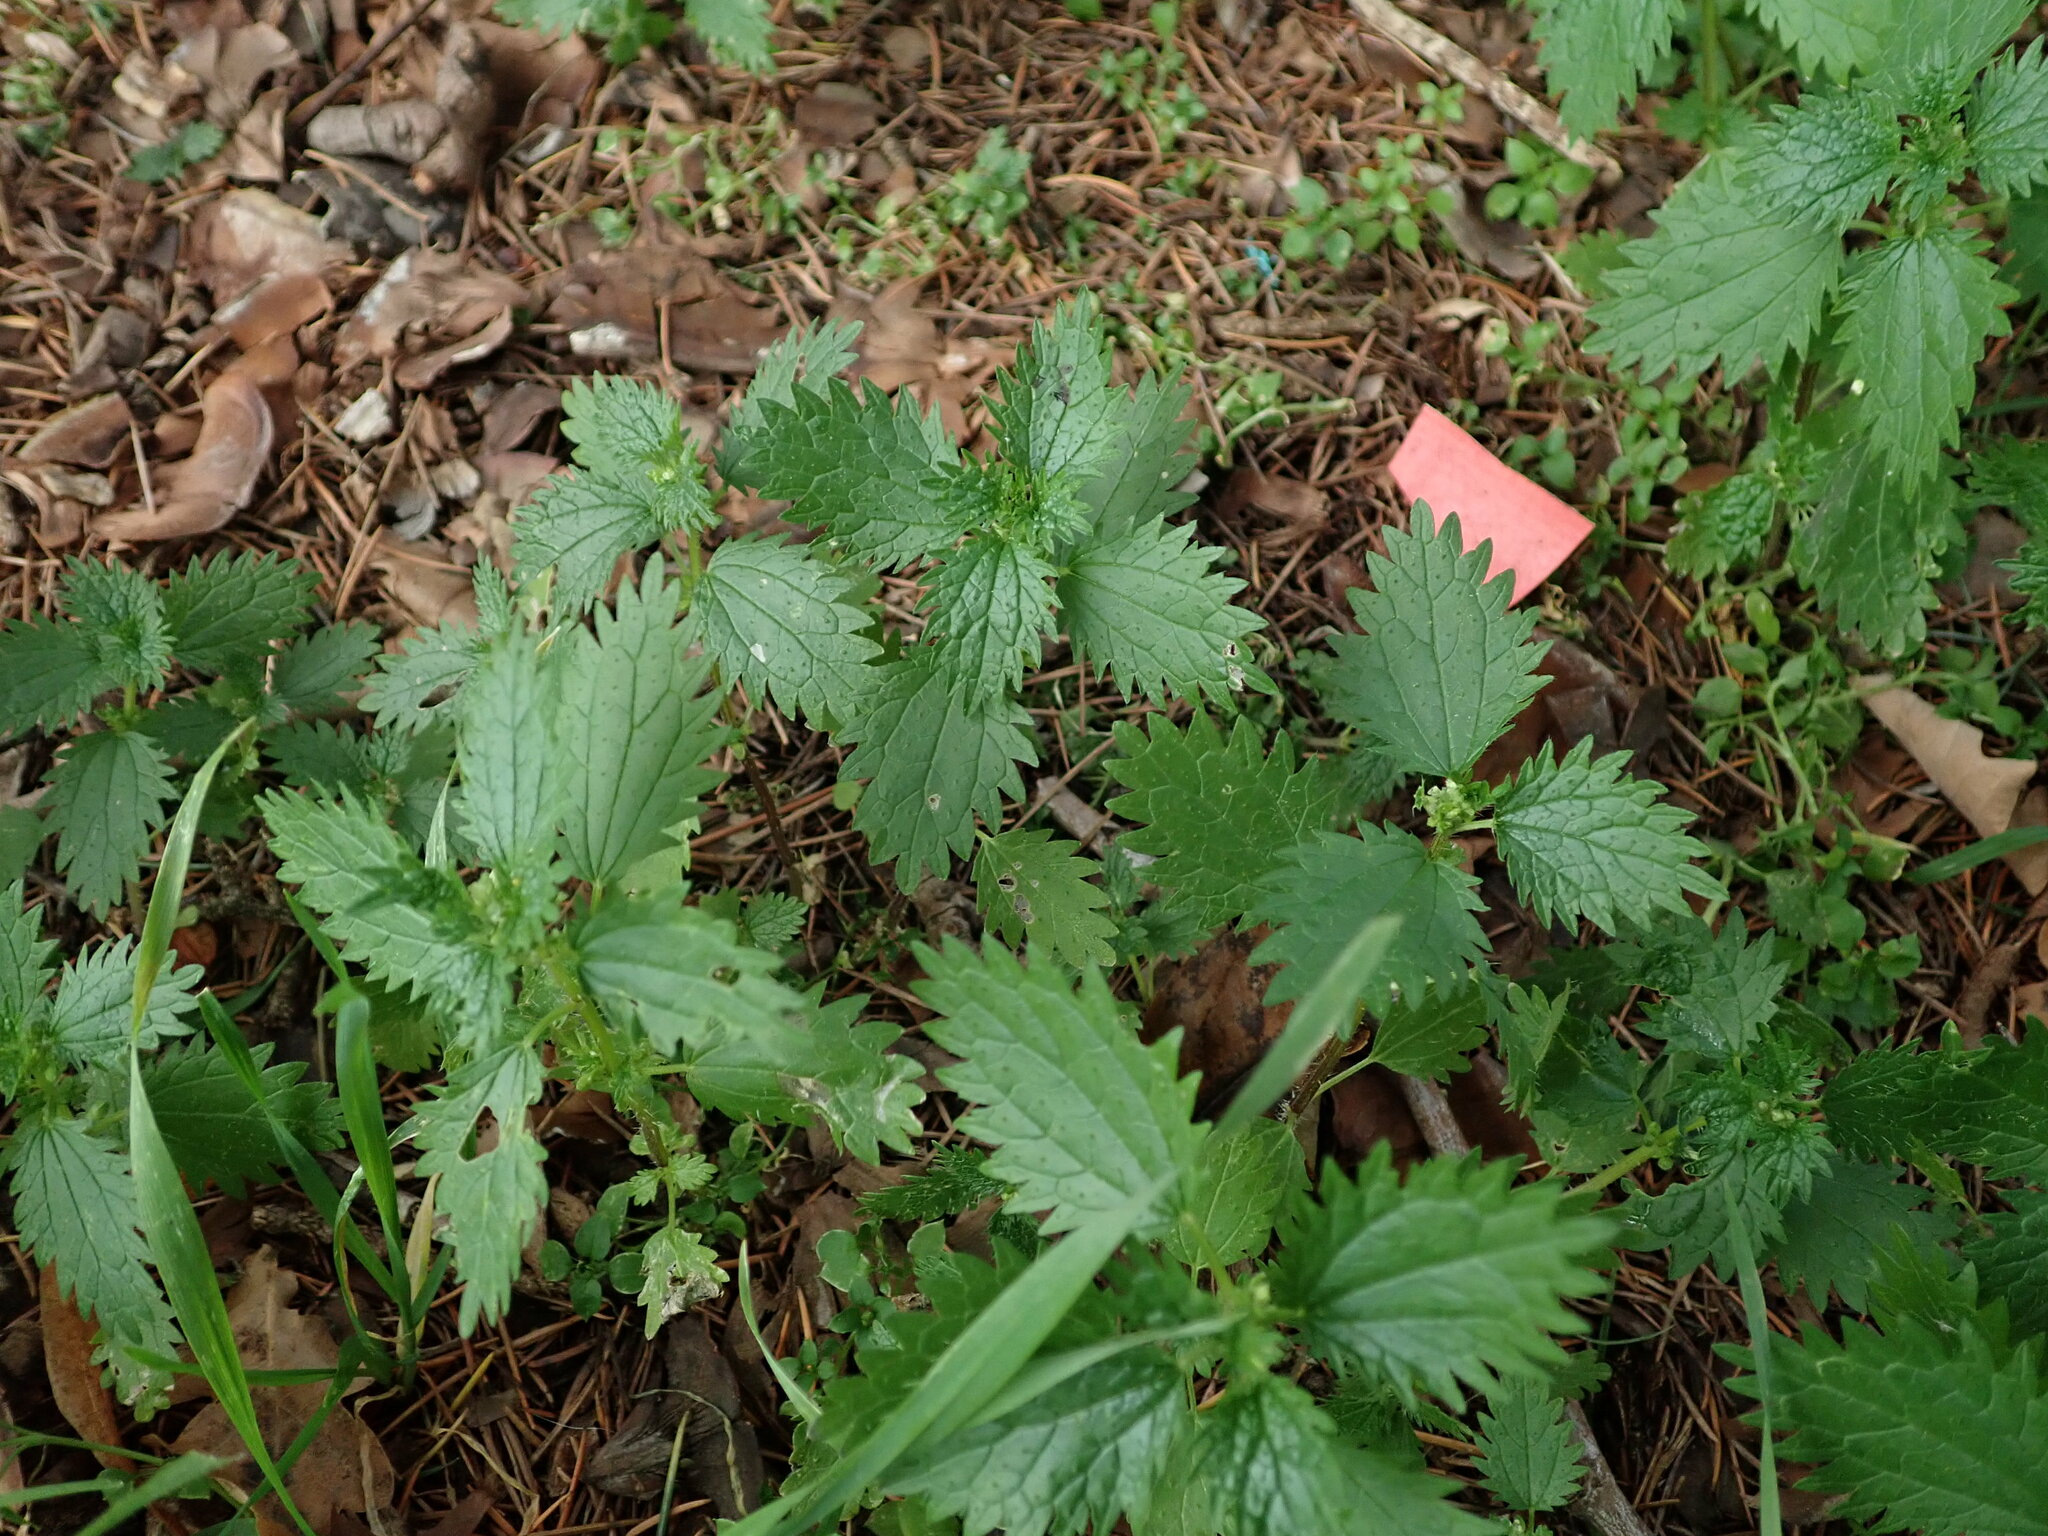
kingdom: Plantae
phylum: Tracheophyta
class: Magnoliopsida
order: Rosales
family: Urticaceae
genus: Urtica
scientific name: Urtica urens
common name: Dwarf nettle
